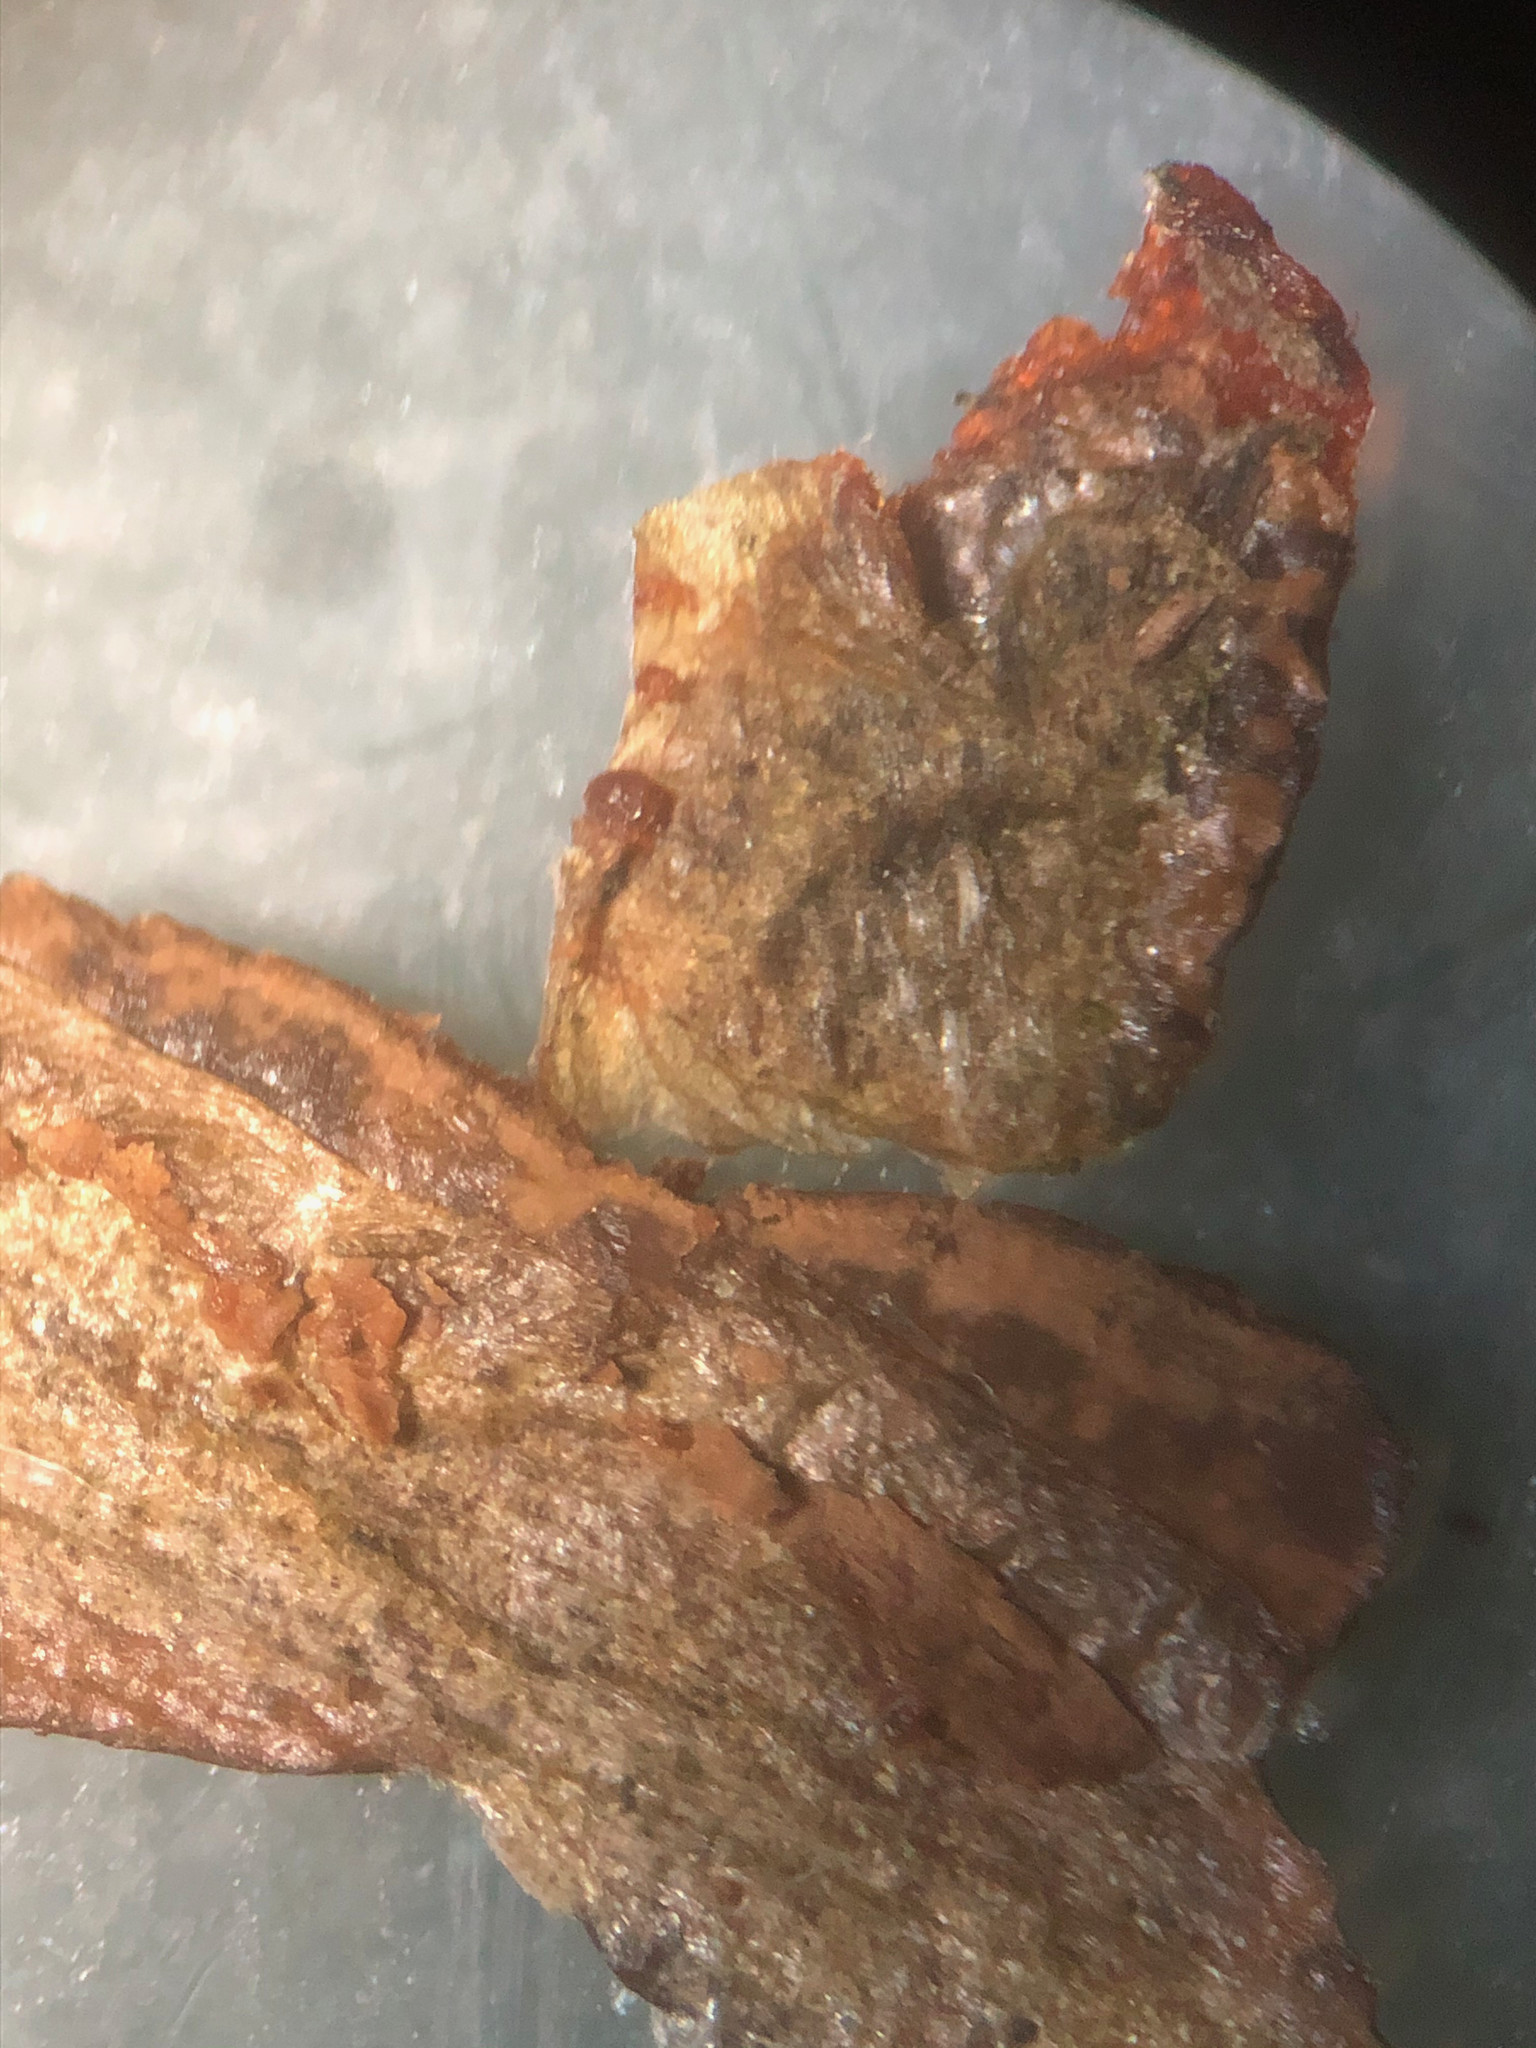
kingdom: Protozoa
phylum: Mycetozoa
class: Myxomycetes
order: Trichiales
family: Dictydiaethaliaceae
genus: Dictydiaethalium
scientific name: Dictydiaethalium plumbeum
